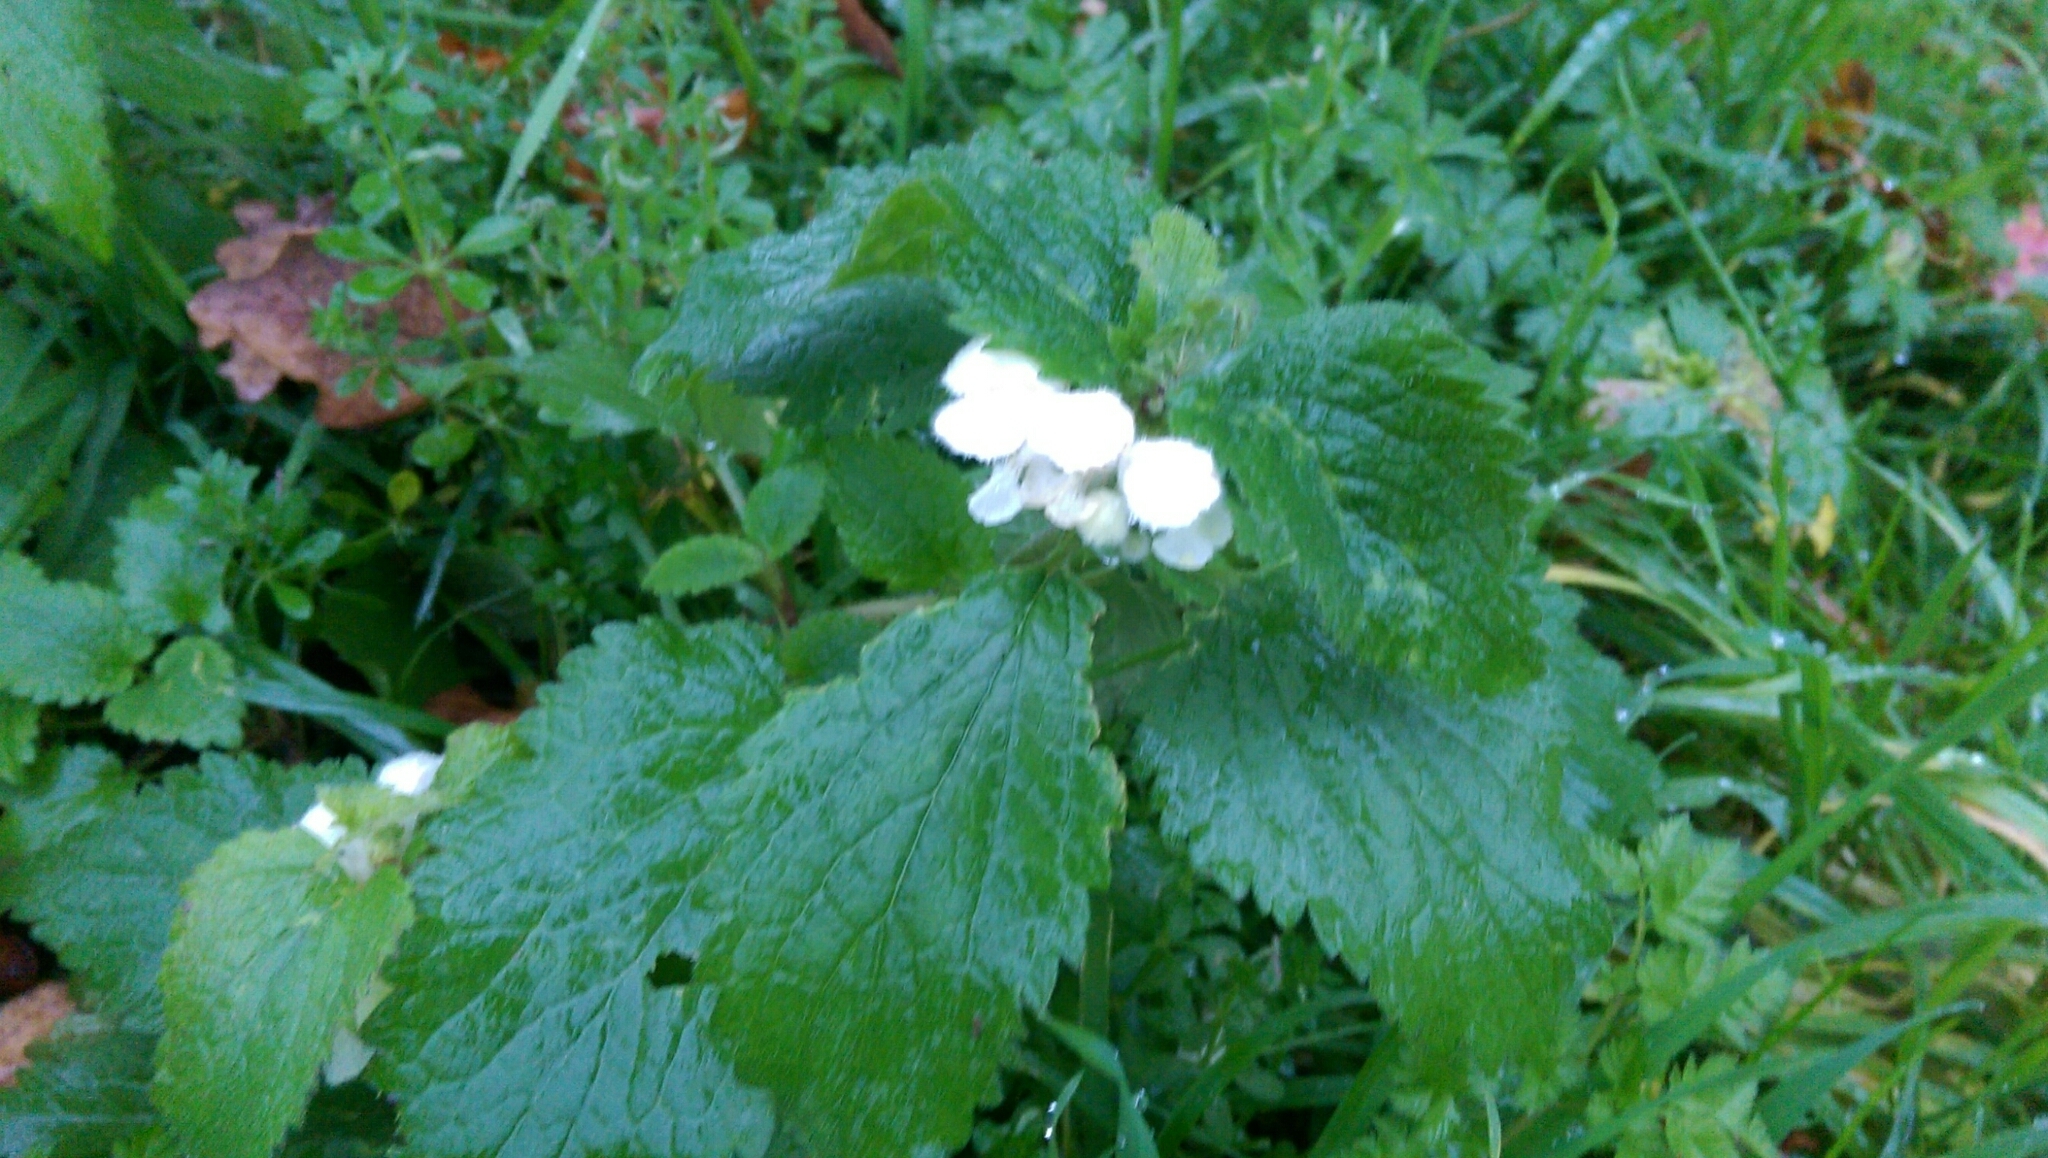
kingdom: Plantae
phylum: Tracheophyta
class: Magnoliopsida
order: Lamiales
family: Lamiaceae
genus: Lamium
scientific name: Lamium album
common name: White dead-nettle
